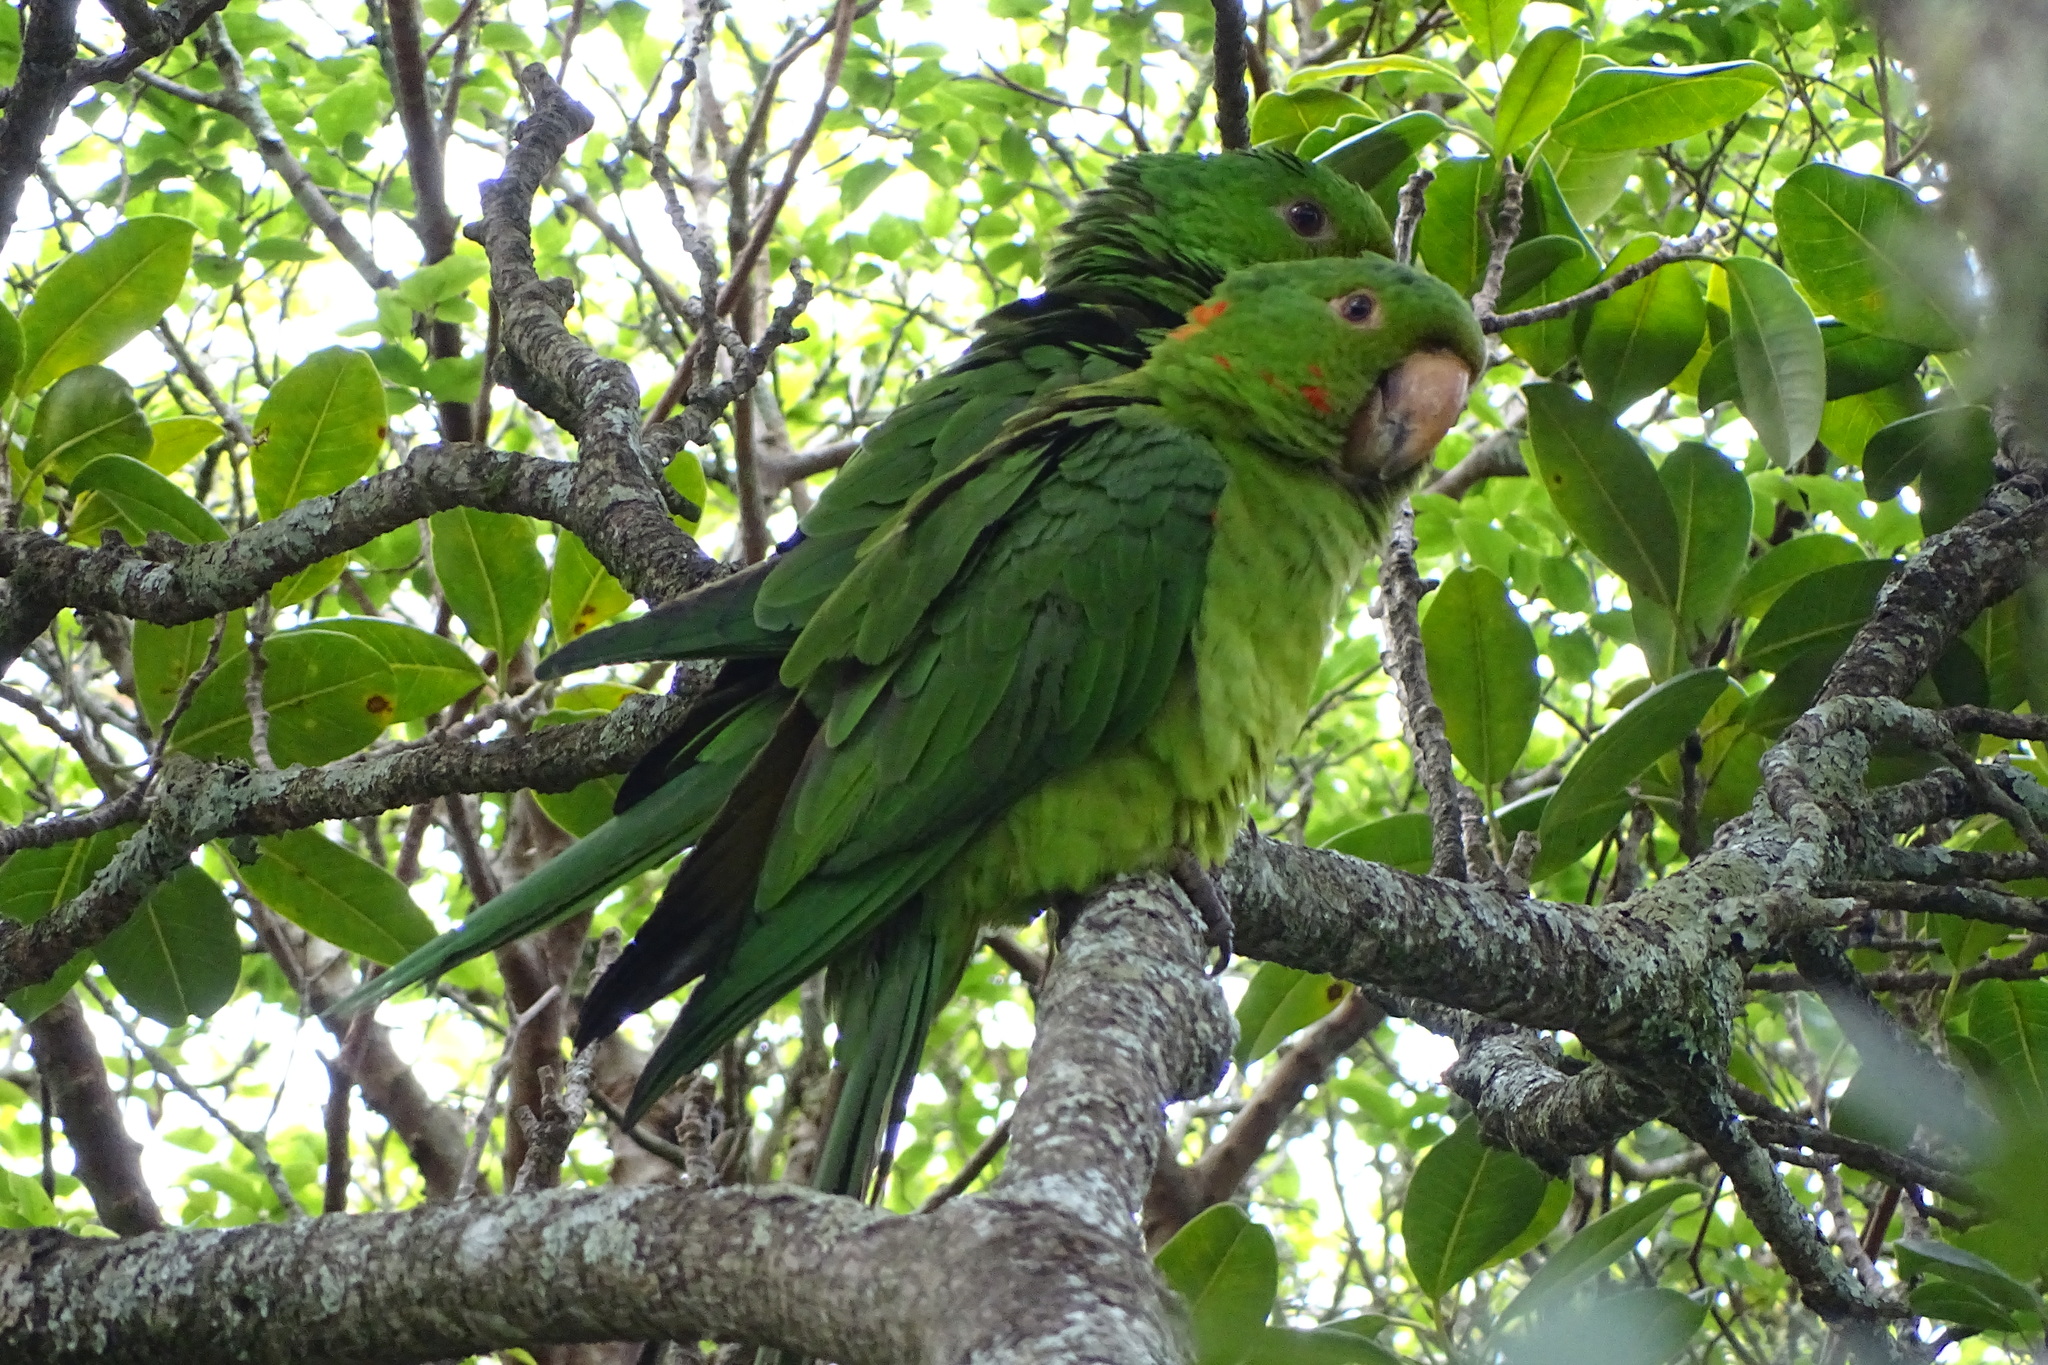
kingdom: Animalia
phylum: Chordata
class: Aves
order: Psittaciformes
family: Psittacidae
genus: Aratinga
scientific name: Aratinga leucophthalma
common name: White-eyed parakeet
